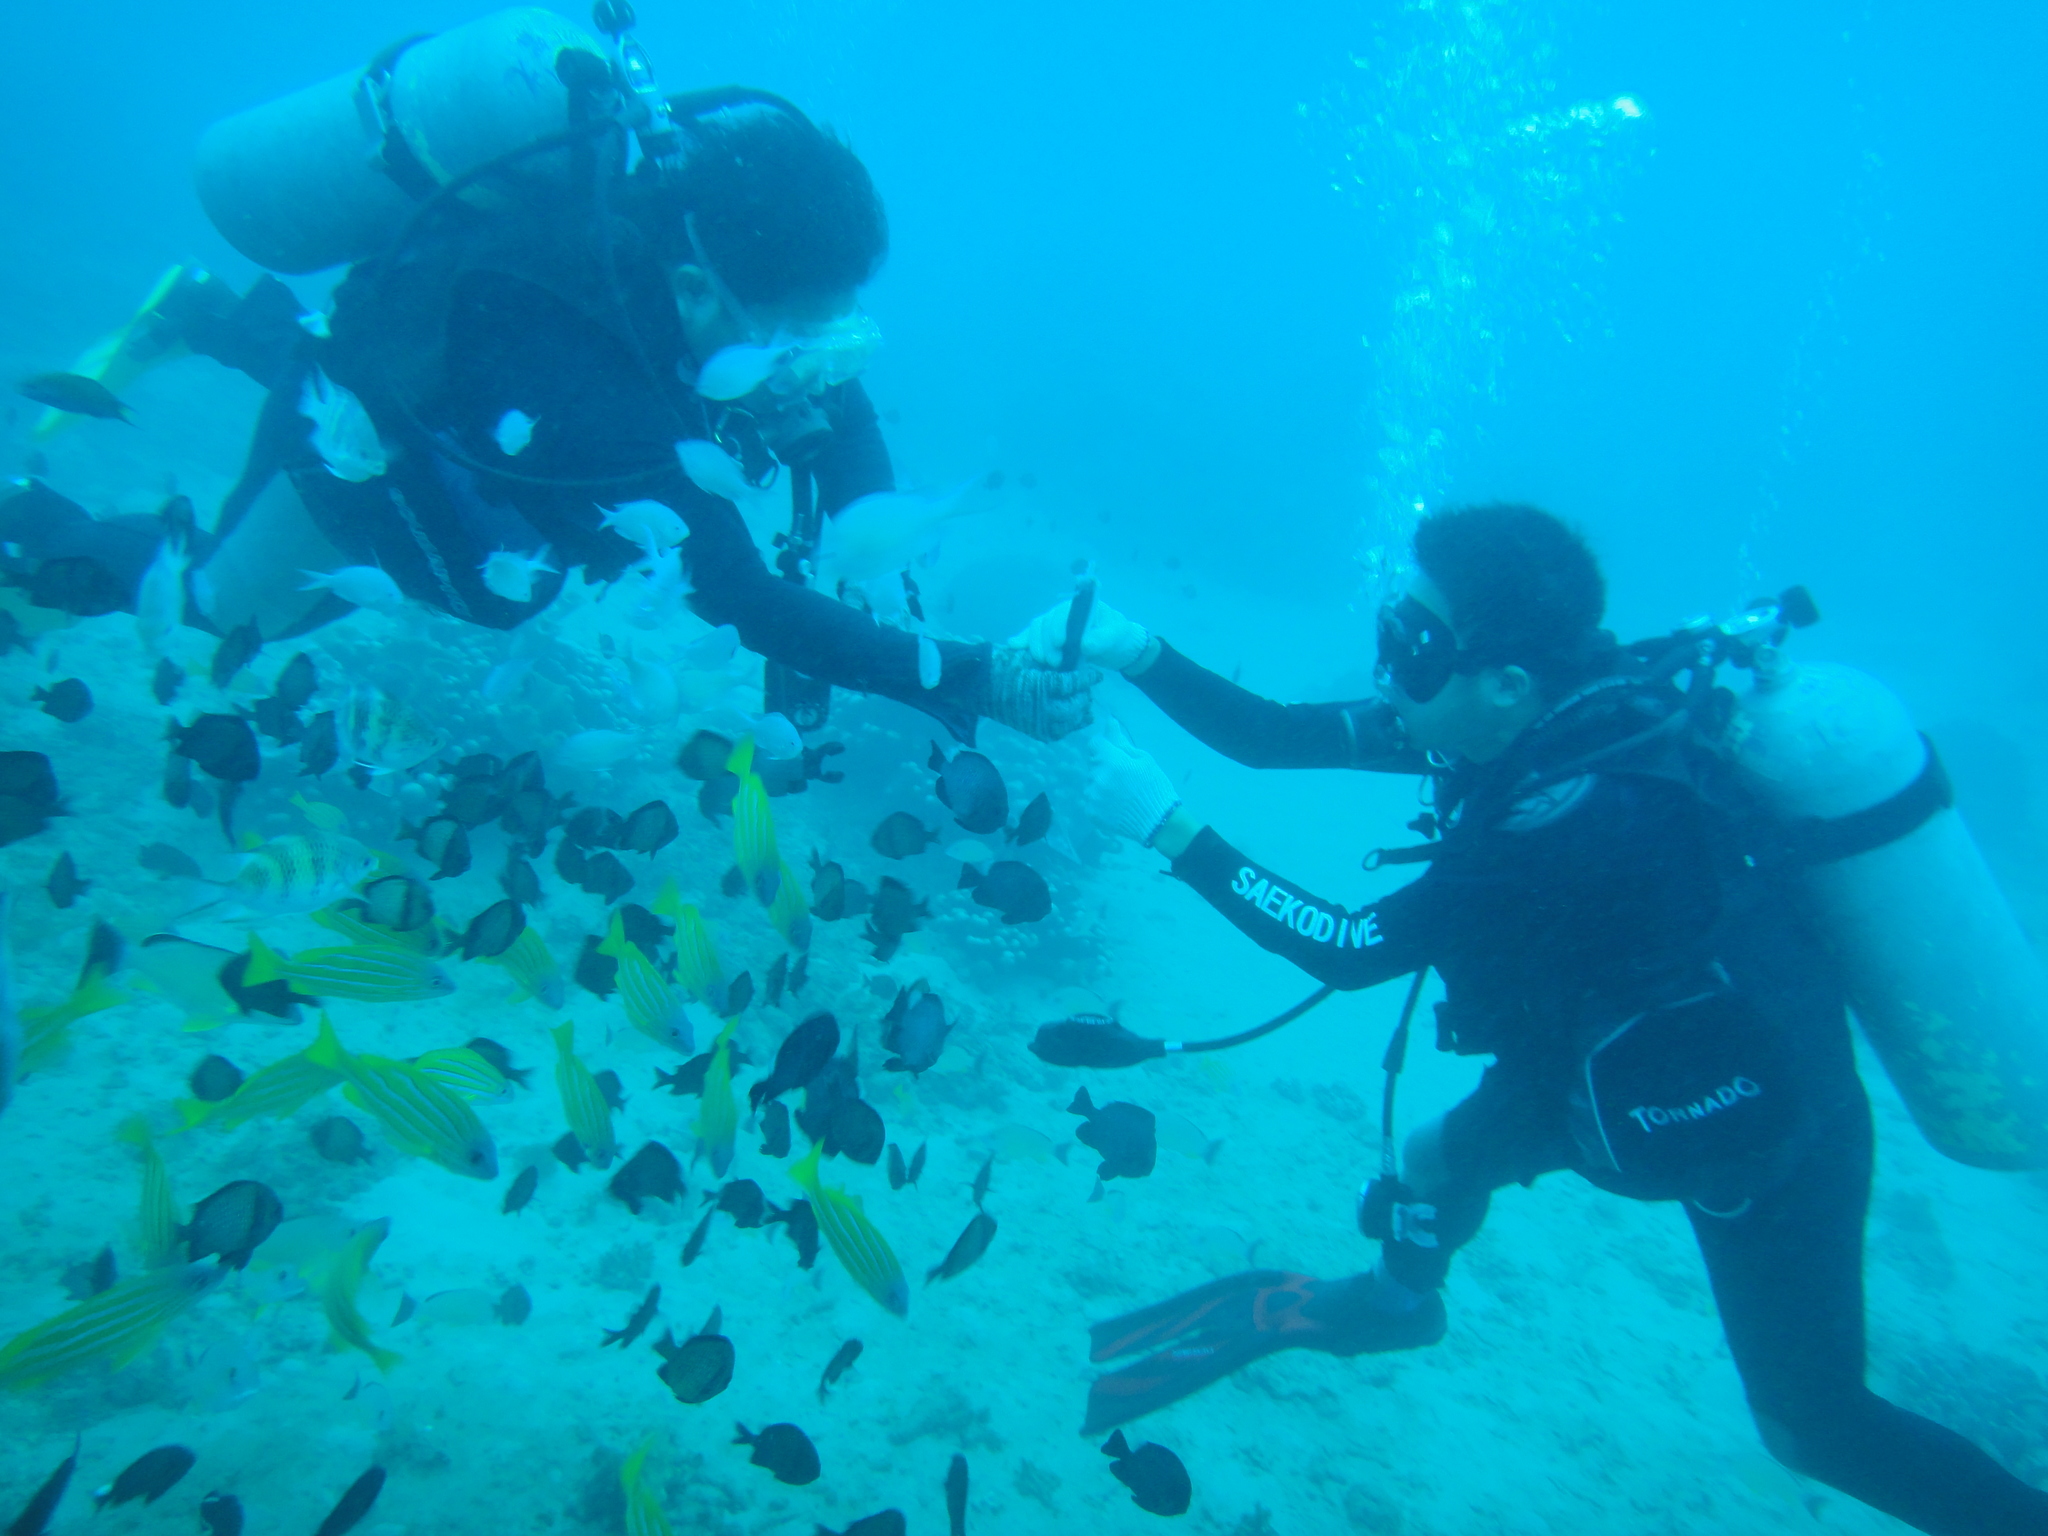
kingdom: Animalia
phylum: Chordata
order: Perciformes
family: Lutjanidae
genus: Lutjanus
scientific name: Lutjanus quinquelineatus
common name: Five-lined snapper
